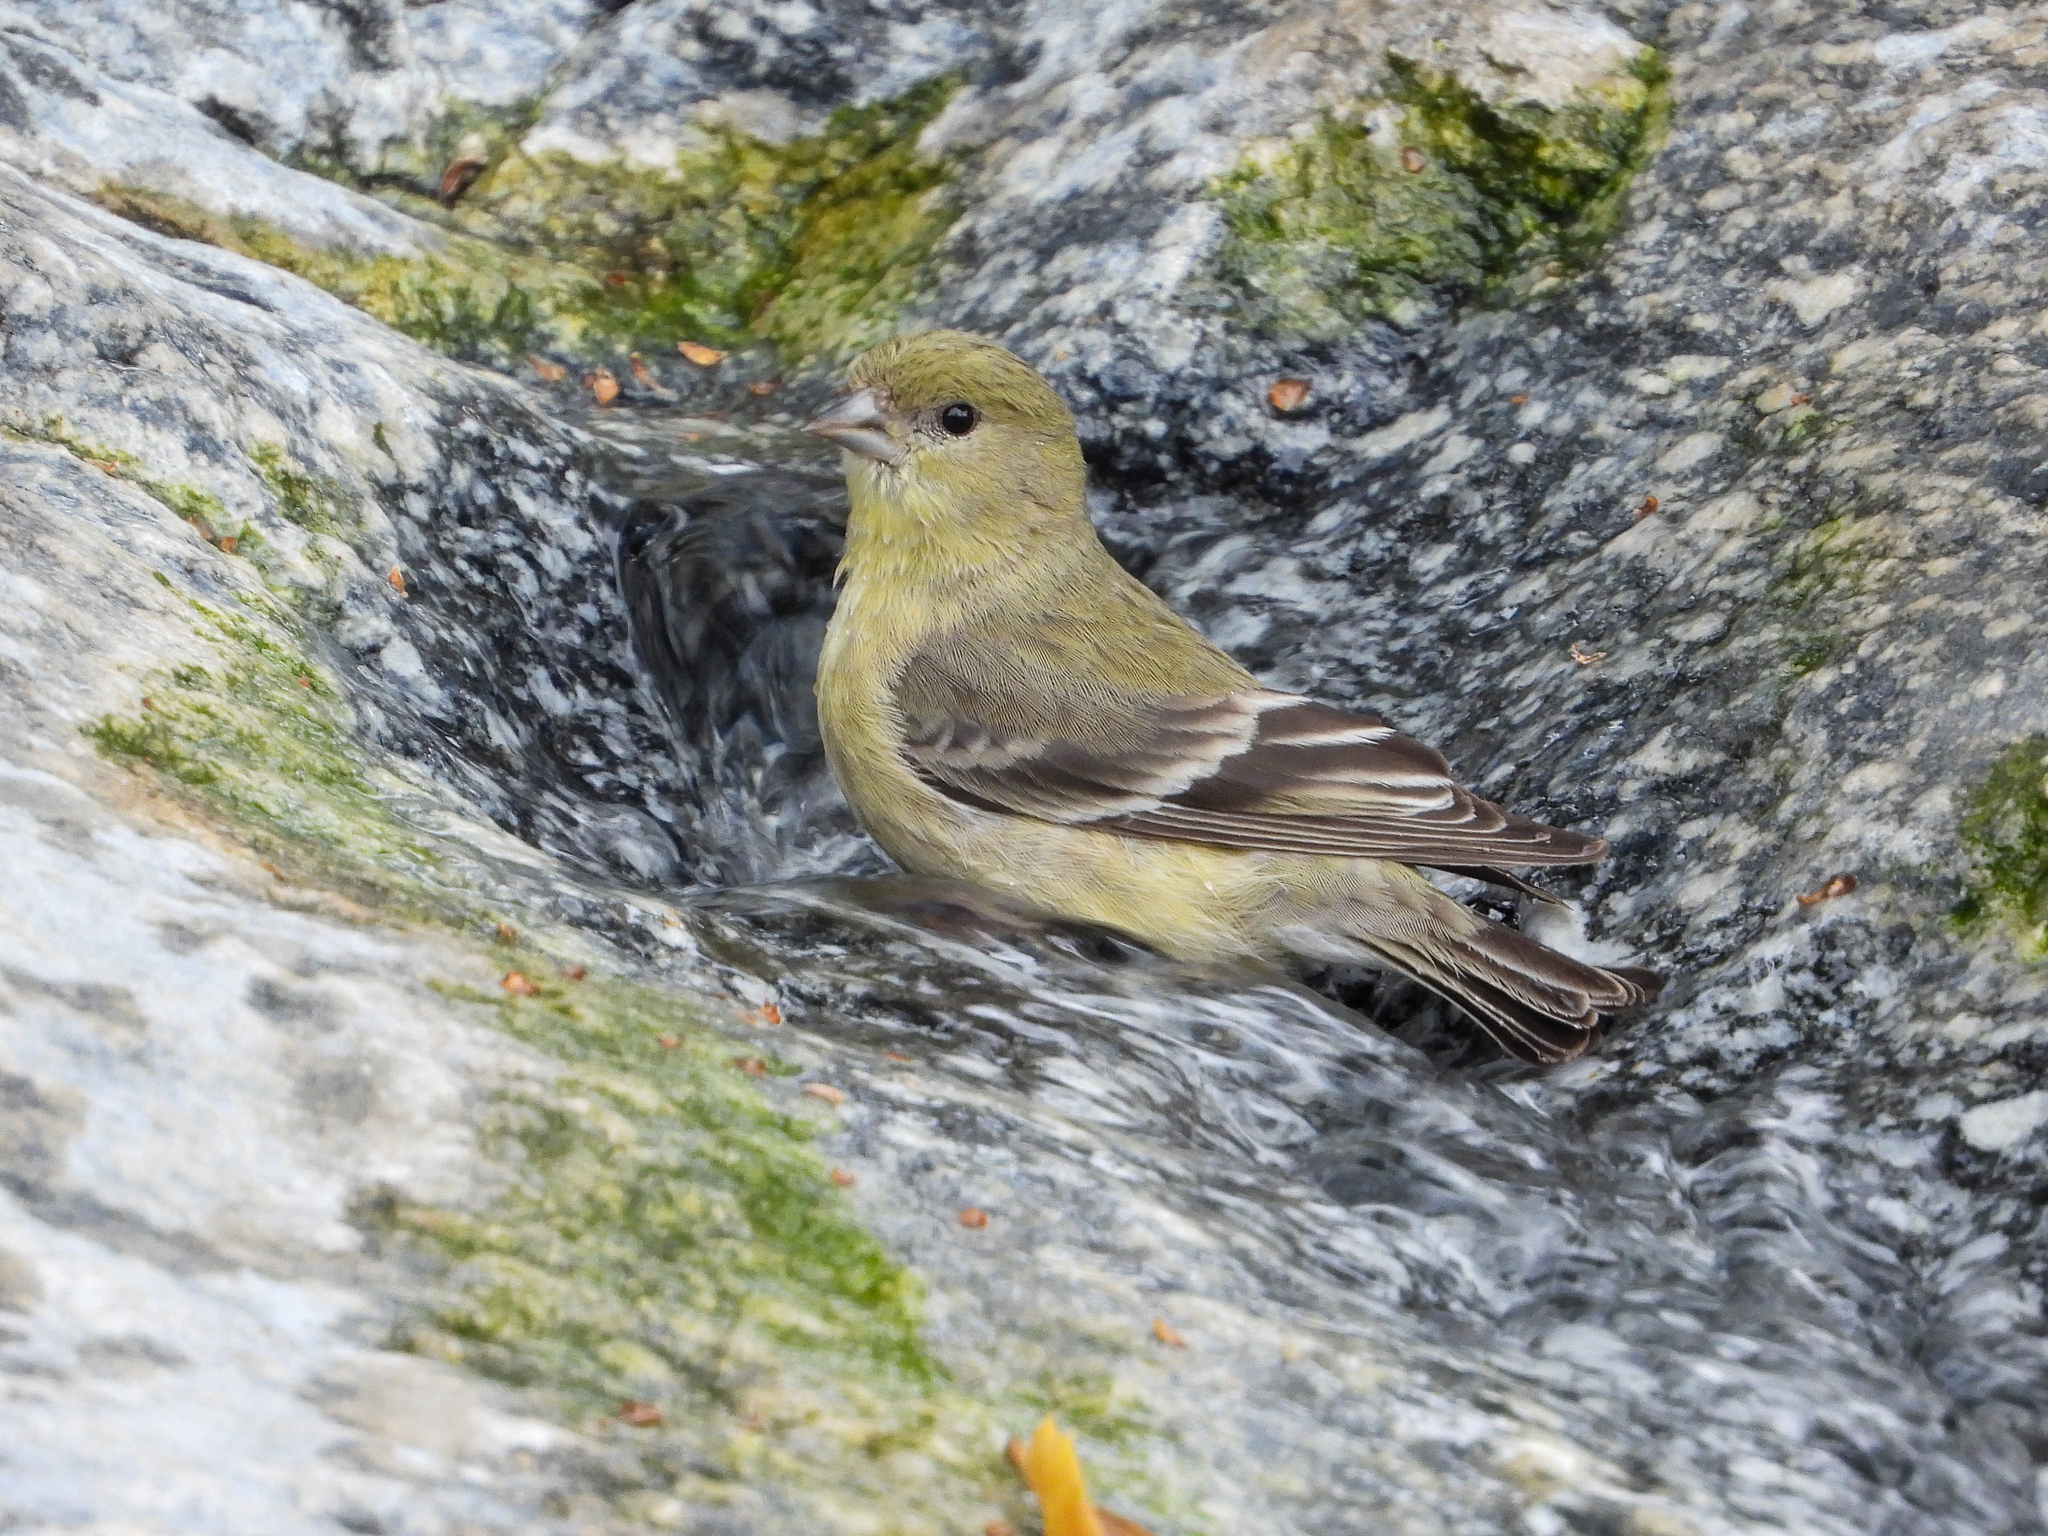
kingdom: Animalia
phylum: Chordata
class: Aves
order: Passeriformes
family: Fringillidae
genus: Spinus
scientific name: Spinus psaltria
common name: Lesser goldfinch
